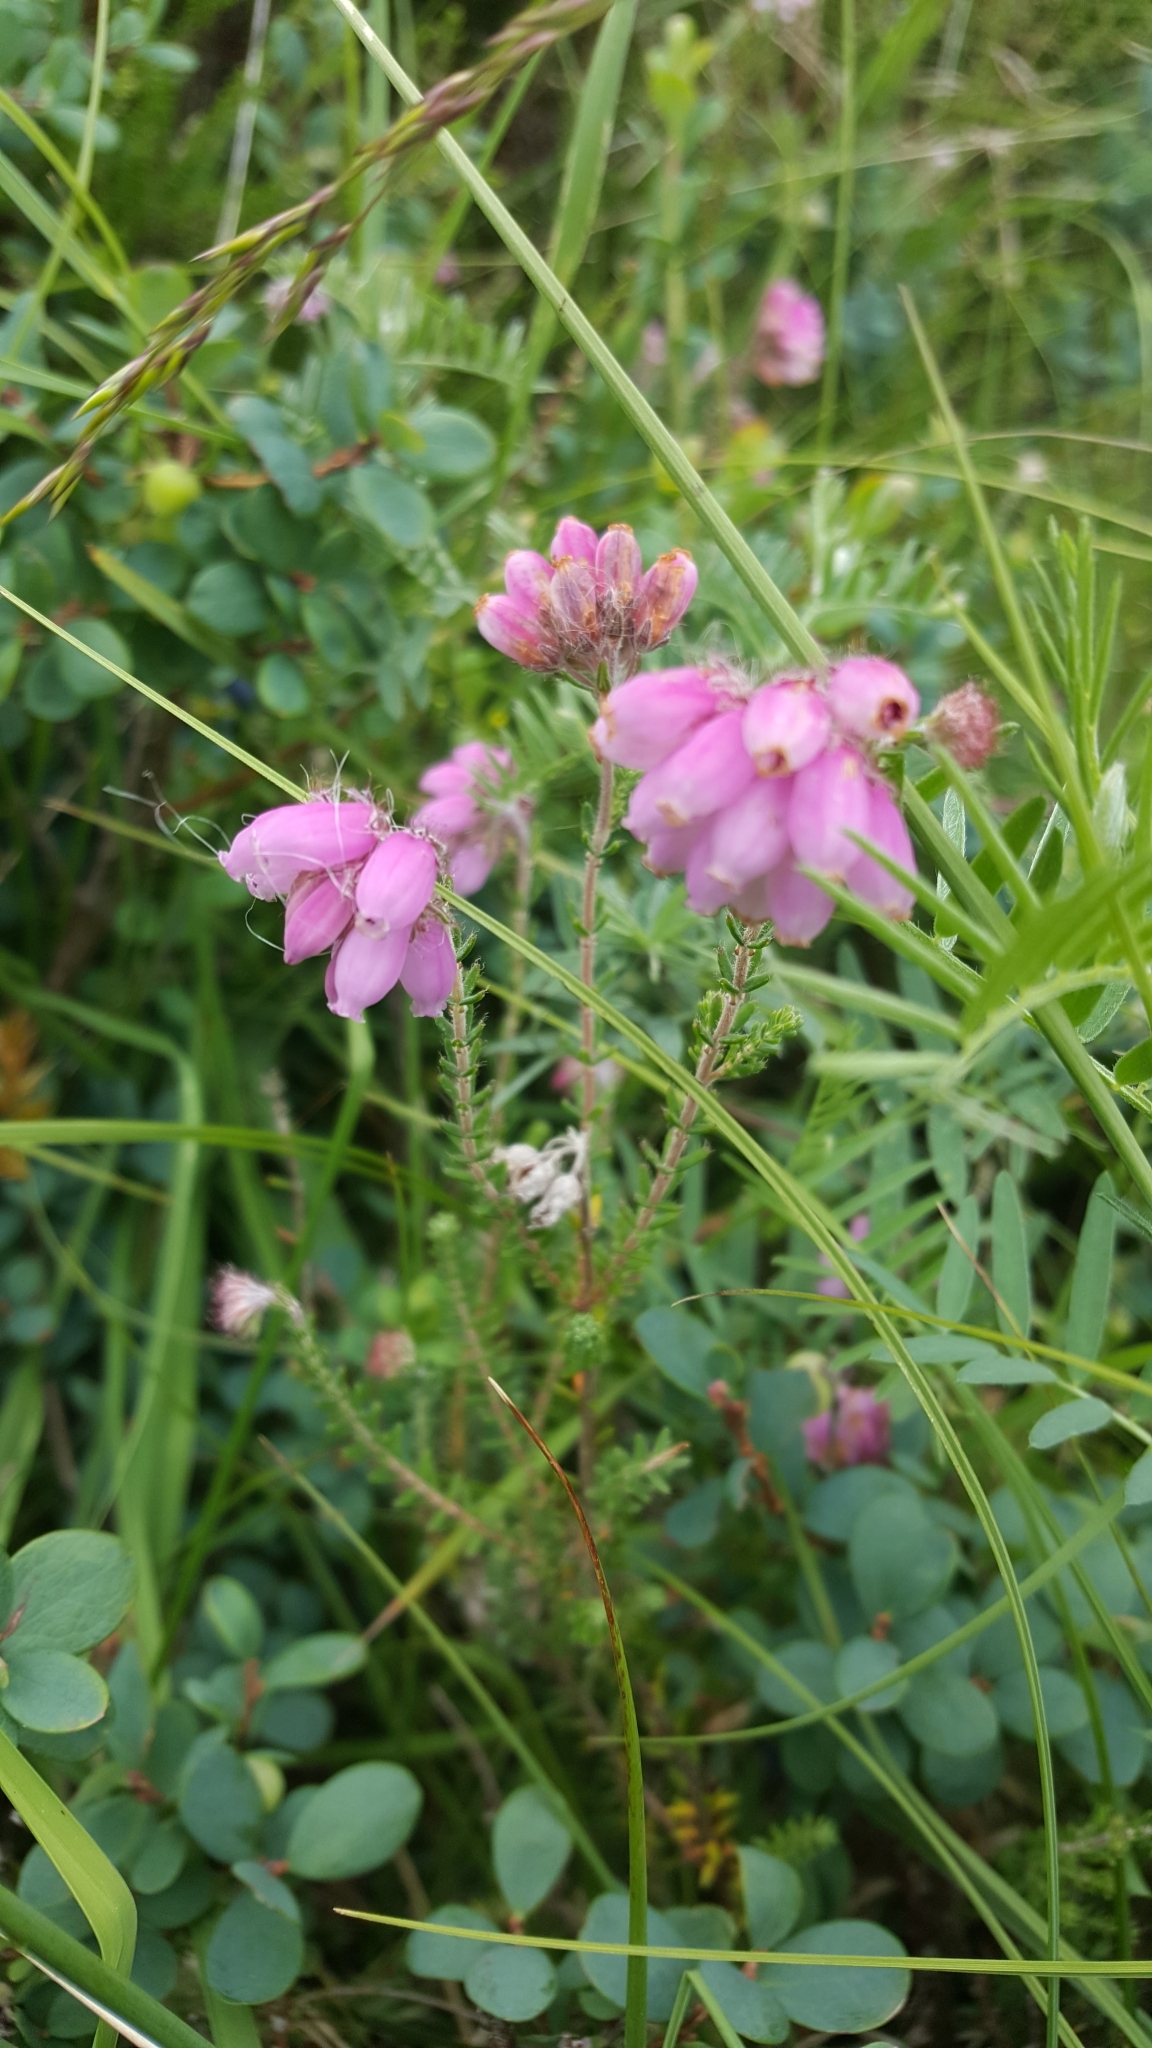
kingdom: Plantae
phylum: Tracheophyta
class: Magnoliopsida
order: Ericales
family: Ericaceae
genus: Erica
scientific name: Erica tetralix
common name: Cross-leaved heath
